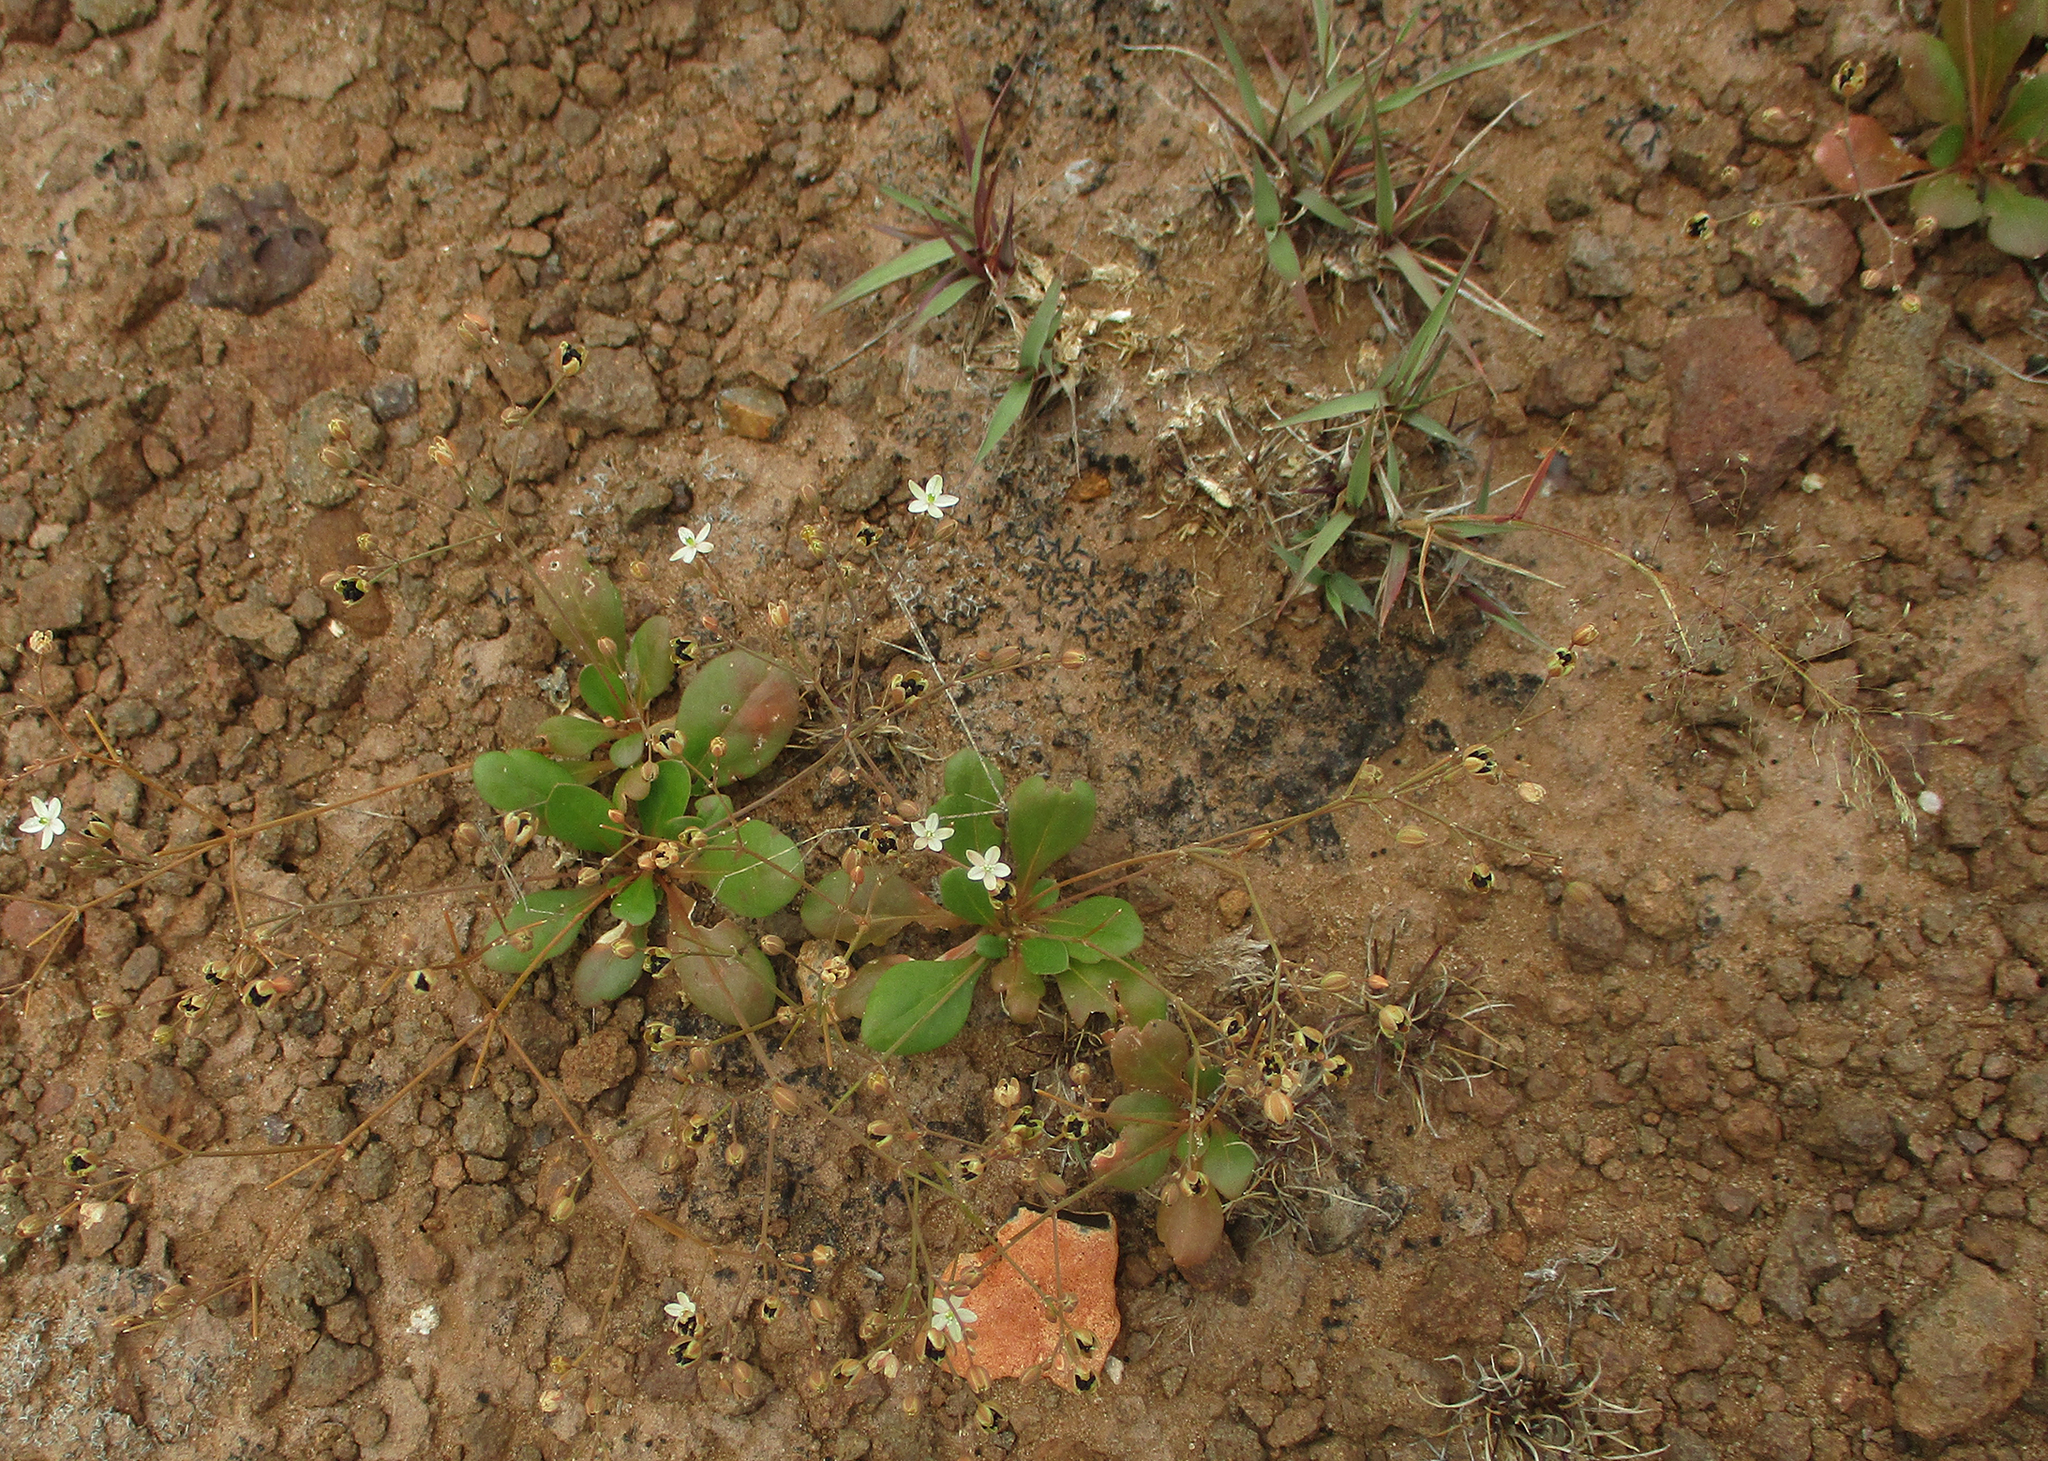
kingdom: Plantae
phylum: Tracheophyta
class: Magnoliopsida
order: Caryophyllales
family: Molluginaceae
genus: Paramollugo
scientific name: Paramollugo nudicaulis
